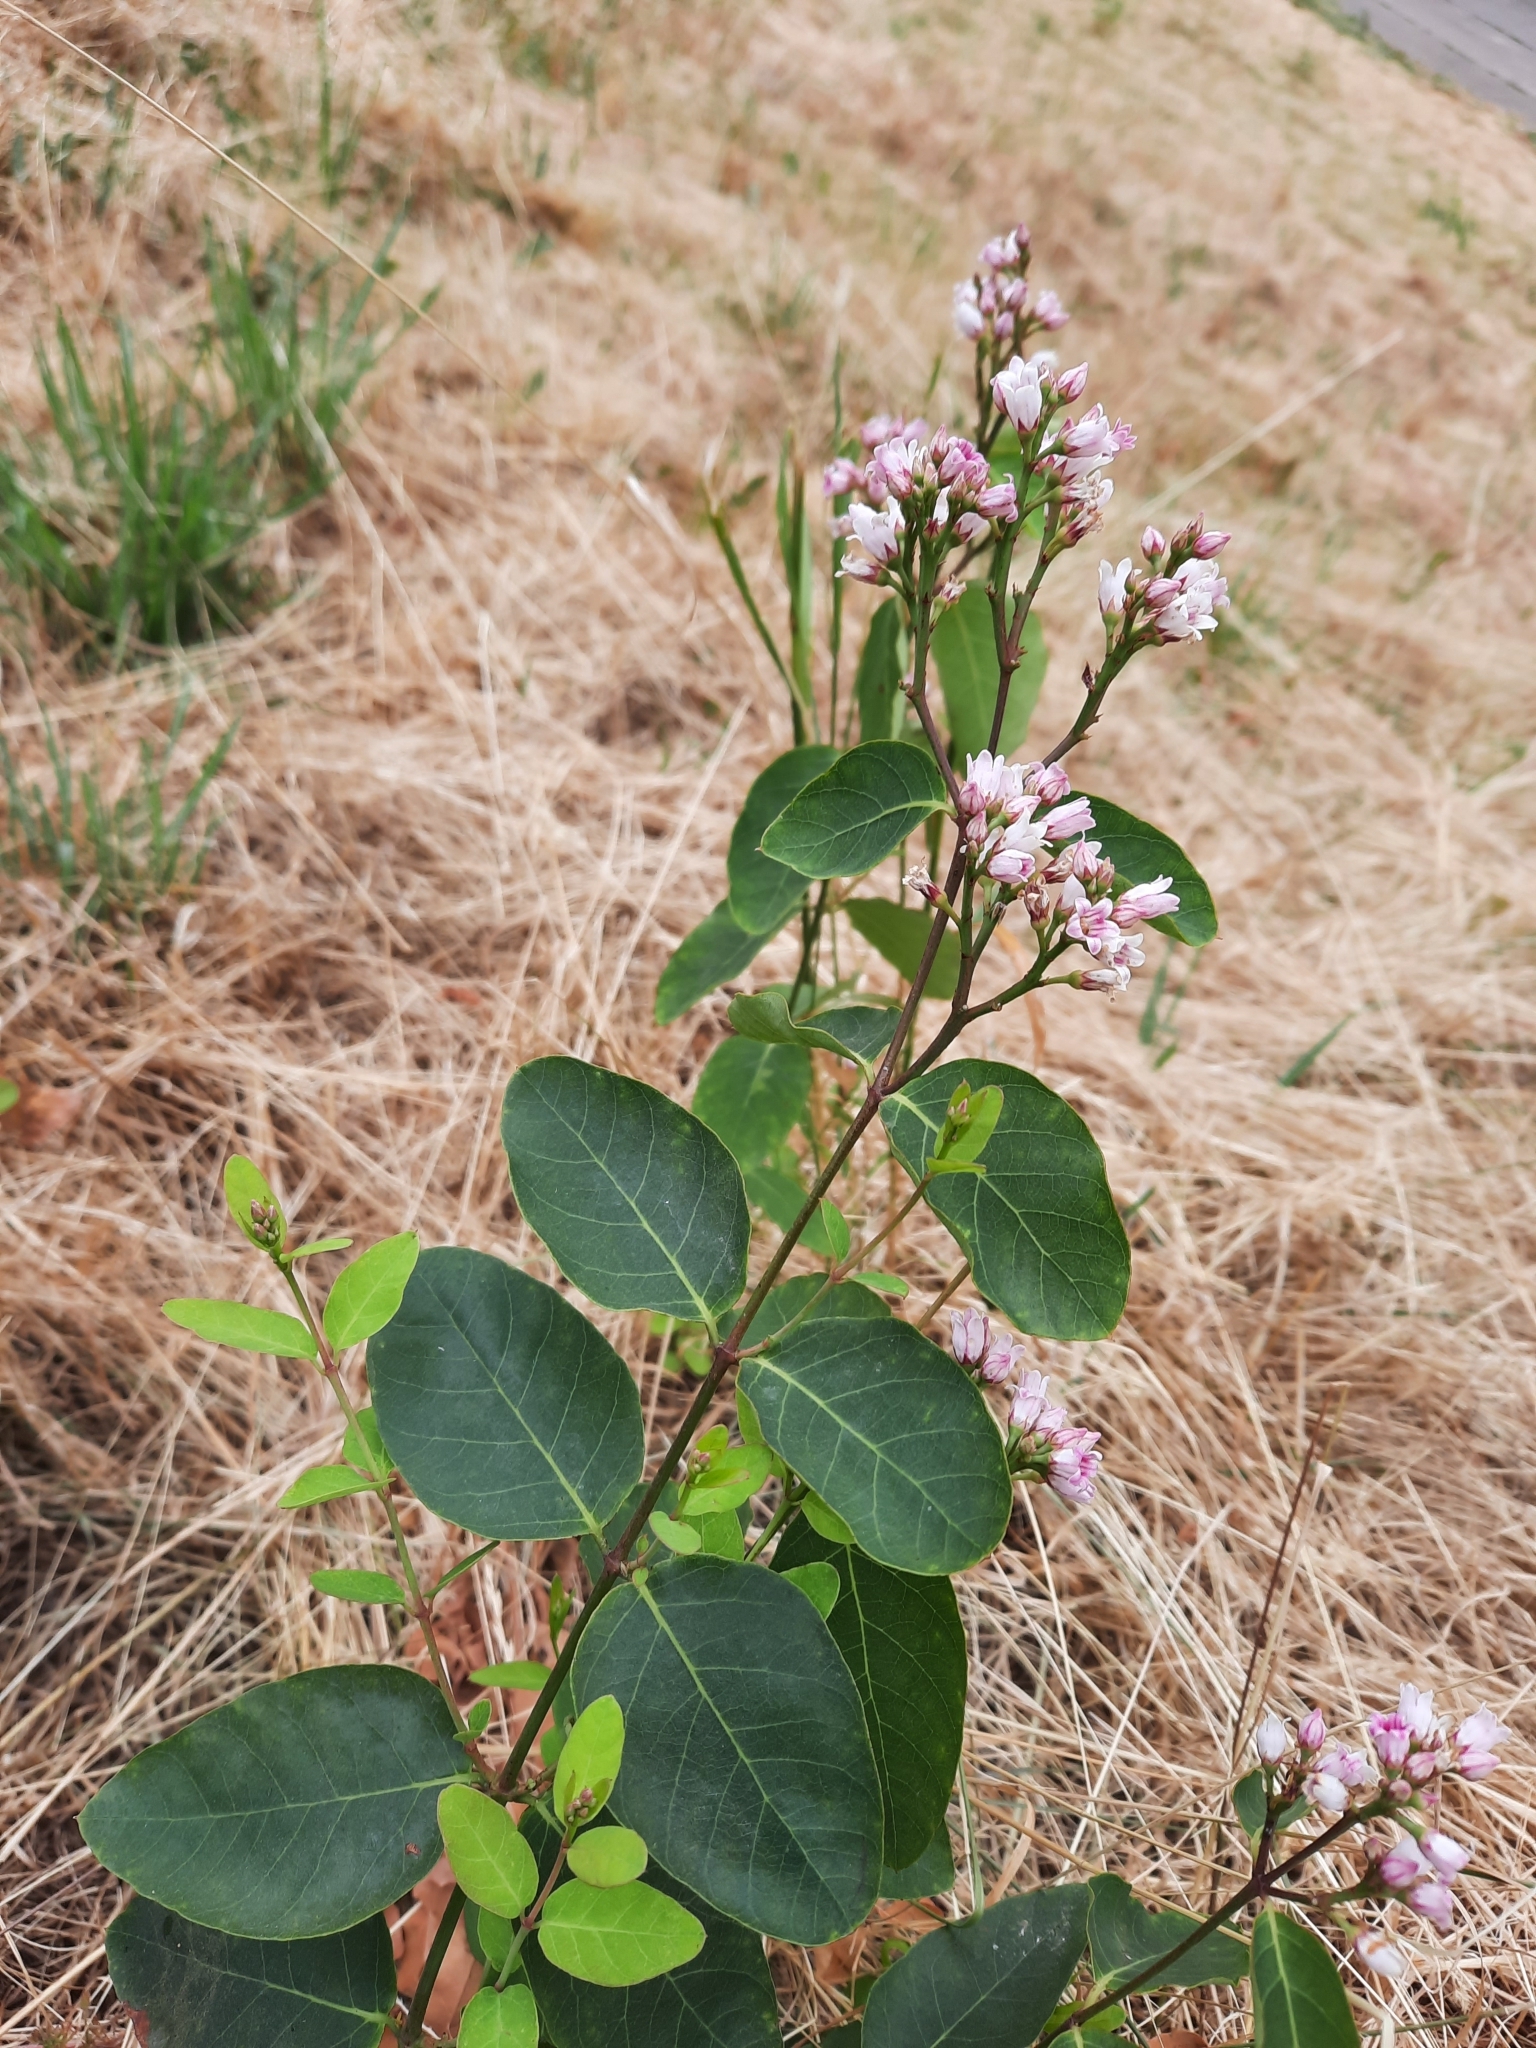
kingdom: Plantae
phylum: Tracheophyta
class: Magnoliopsida
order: Gentianales
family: Apocynaceae
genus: Apocynum
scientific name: Apocynum androsaemifolium
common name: Spreading dogbane
